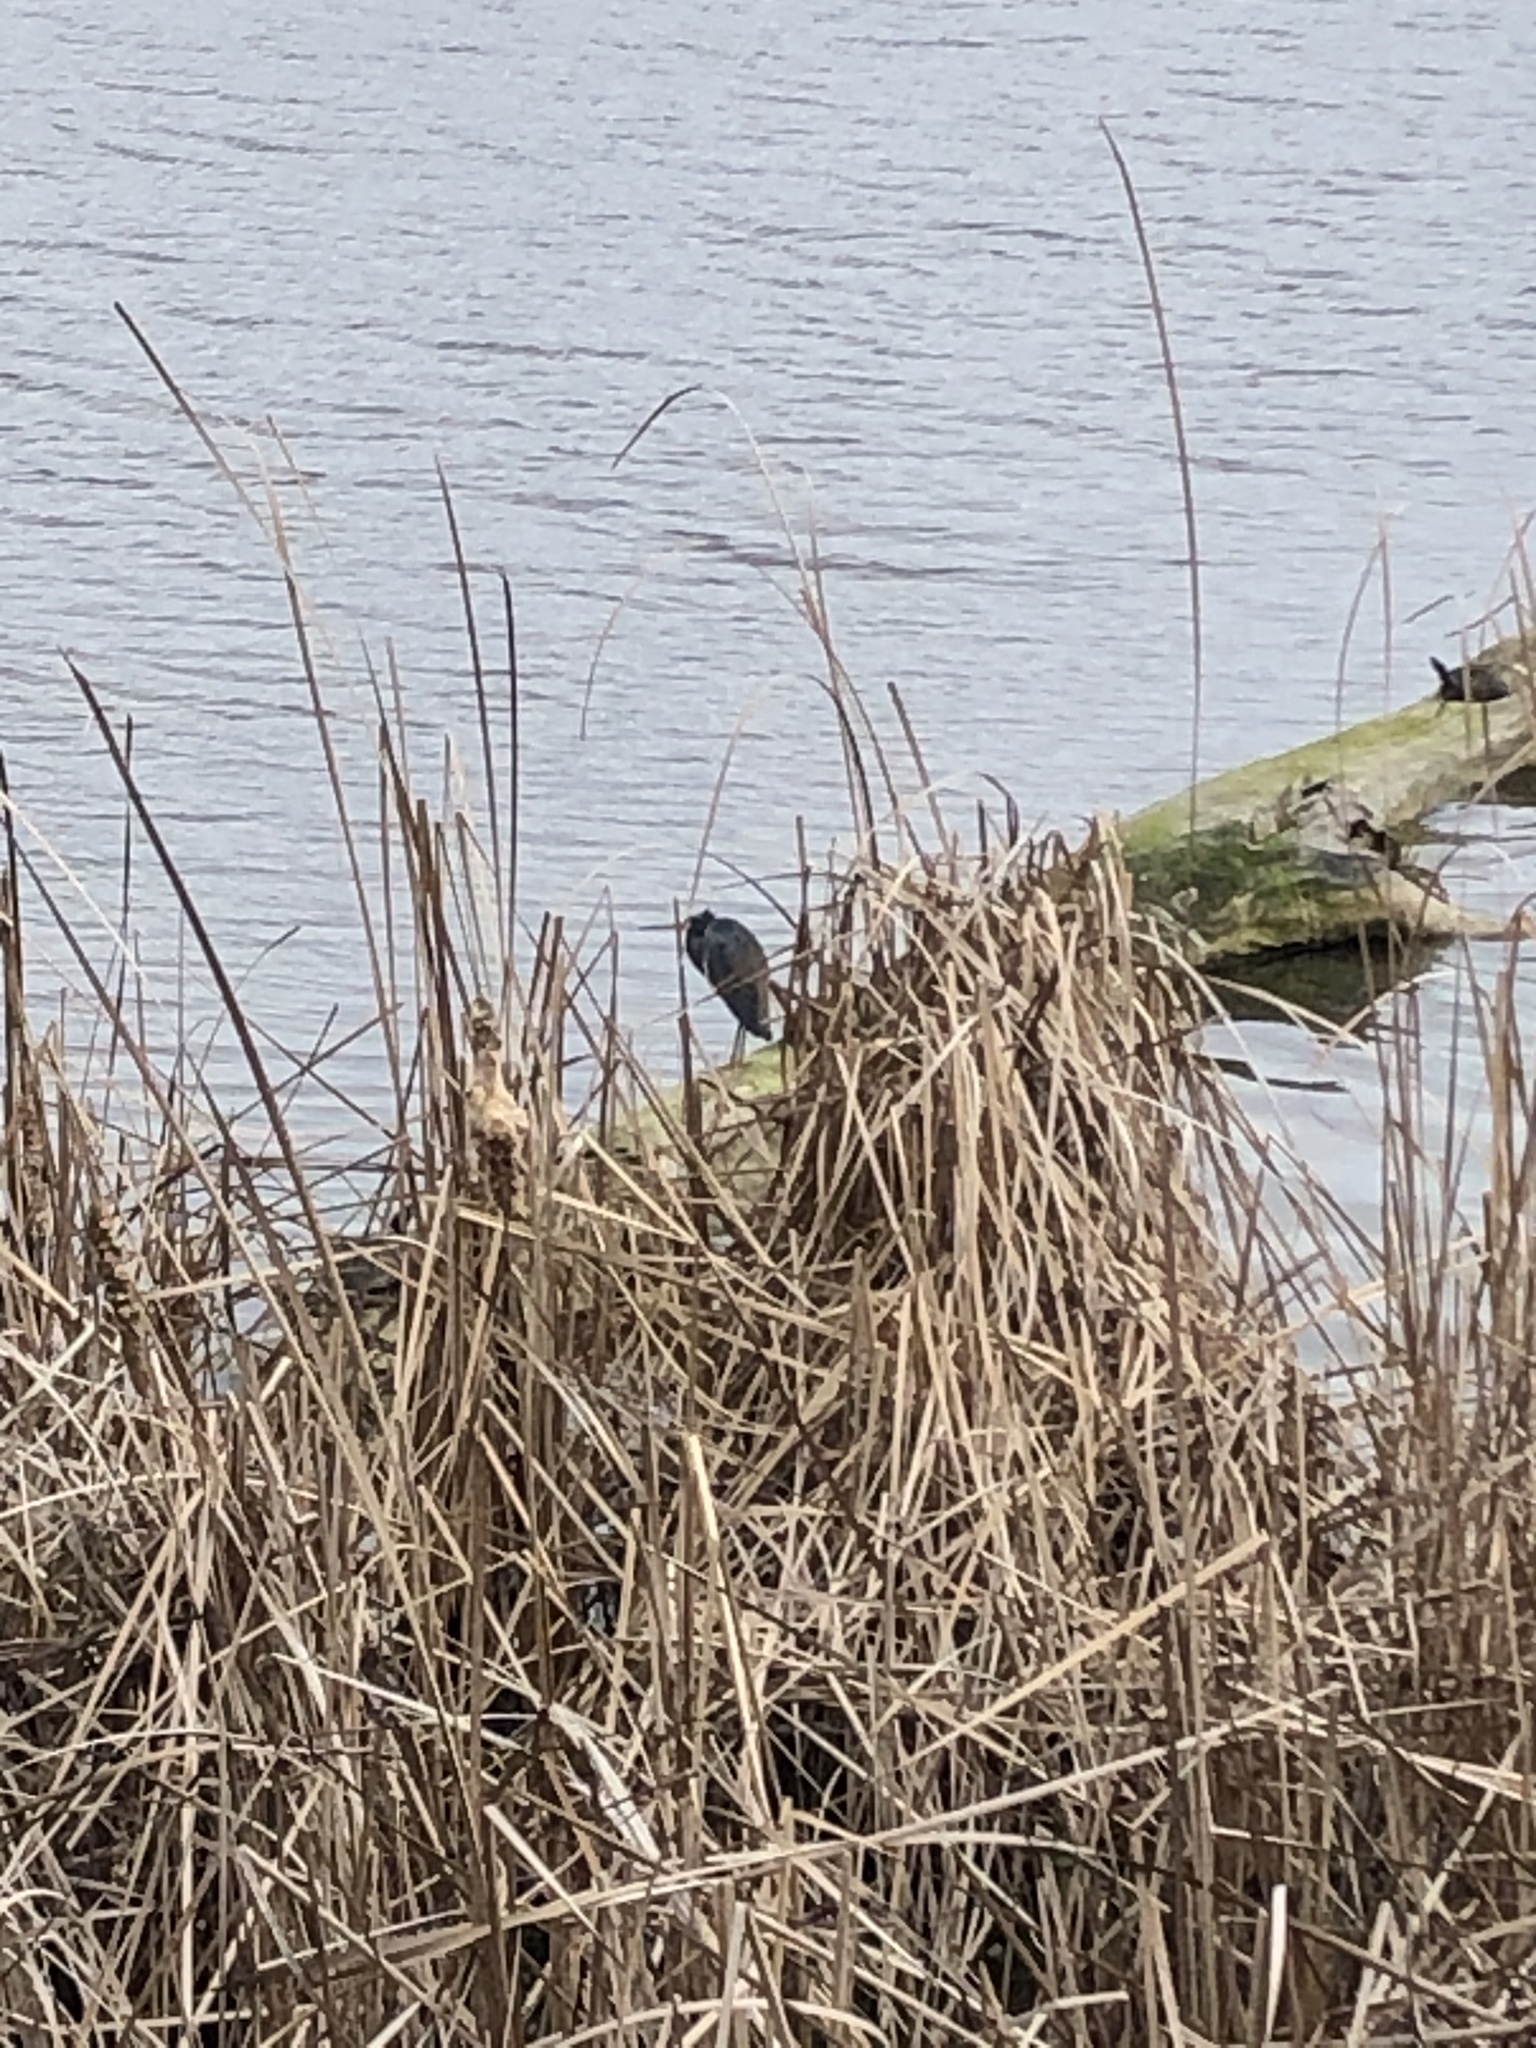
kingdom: Animalia
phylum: Chordata
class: Aves
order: Pelecaniformes
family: Ardeidae
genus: Egretta
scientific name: Egretta tricolor
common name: Tricolored heron
